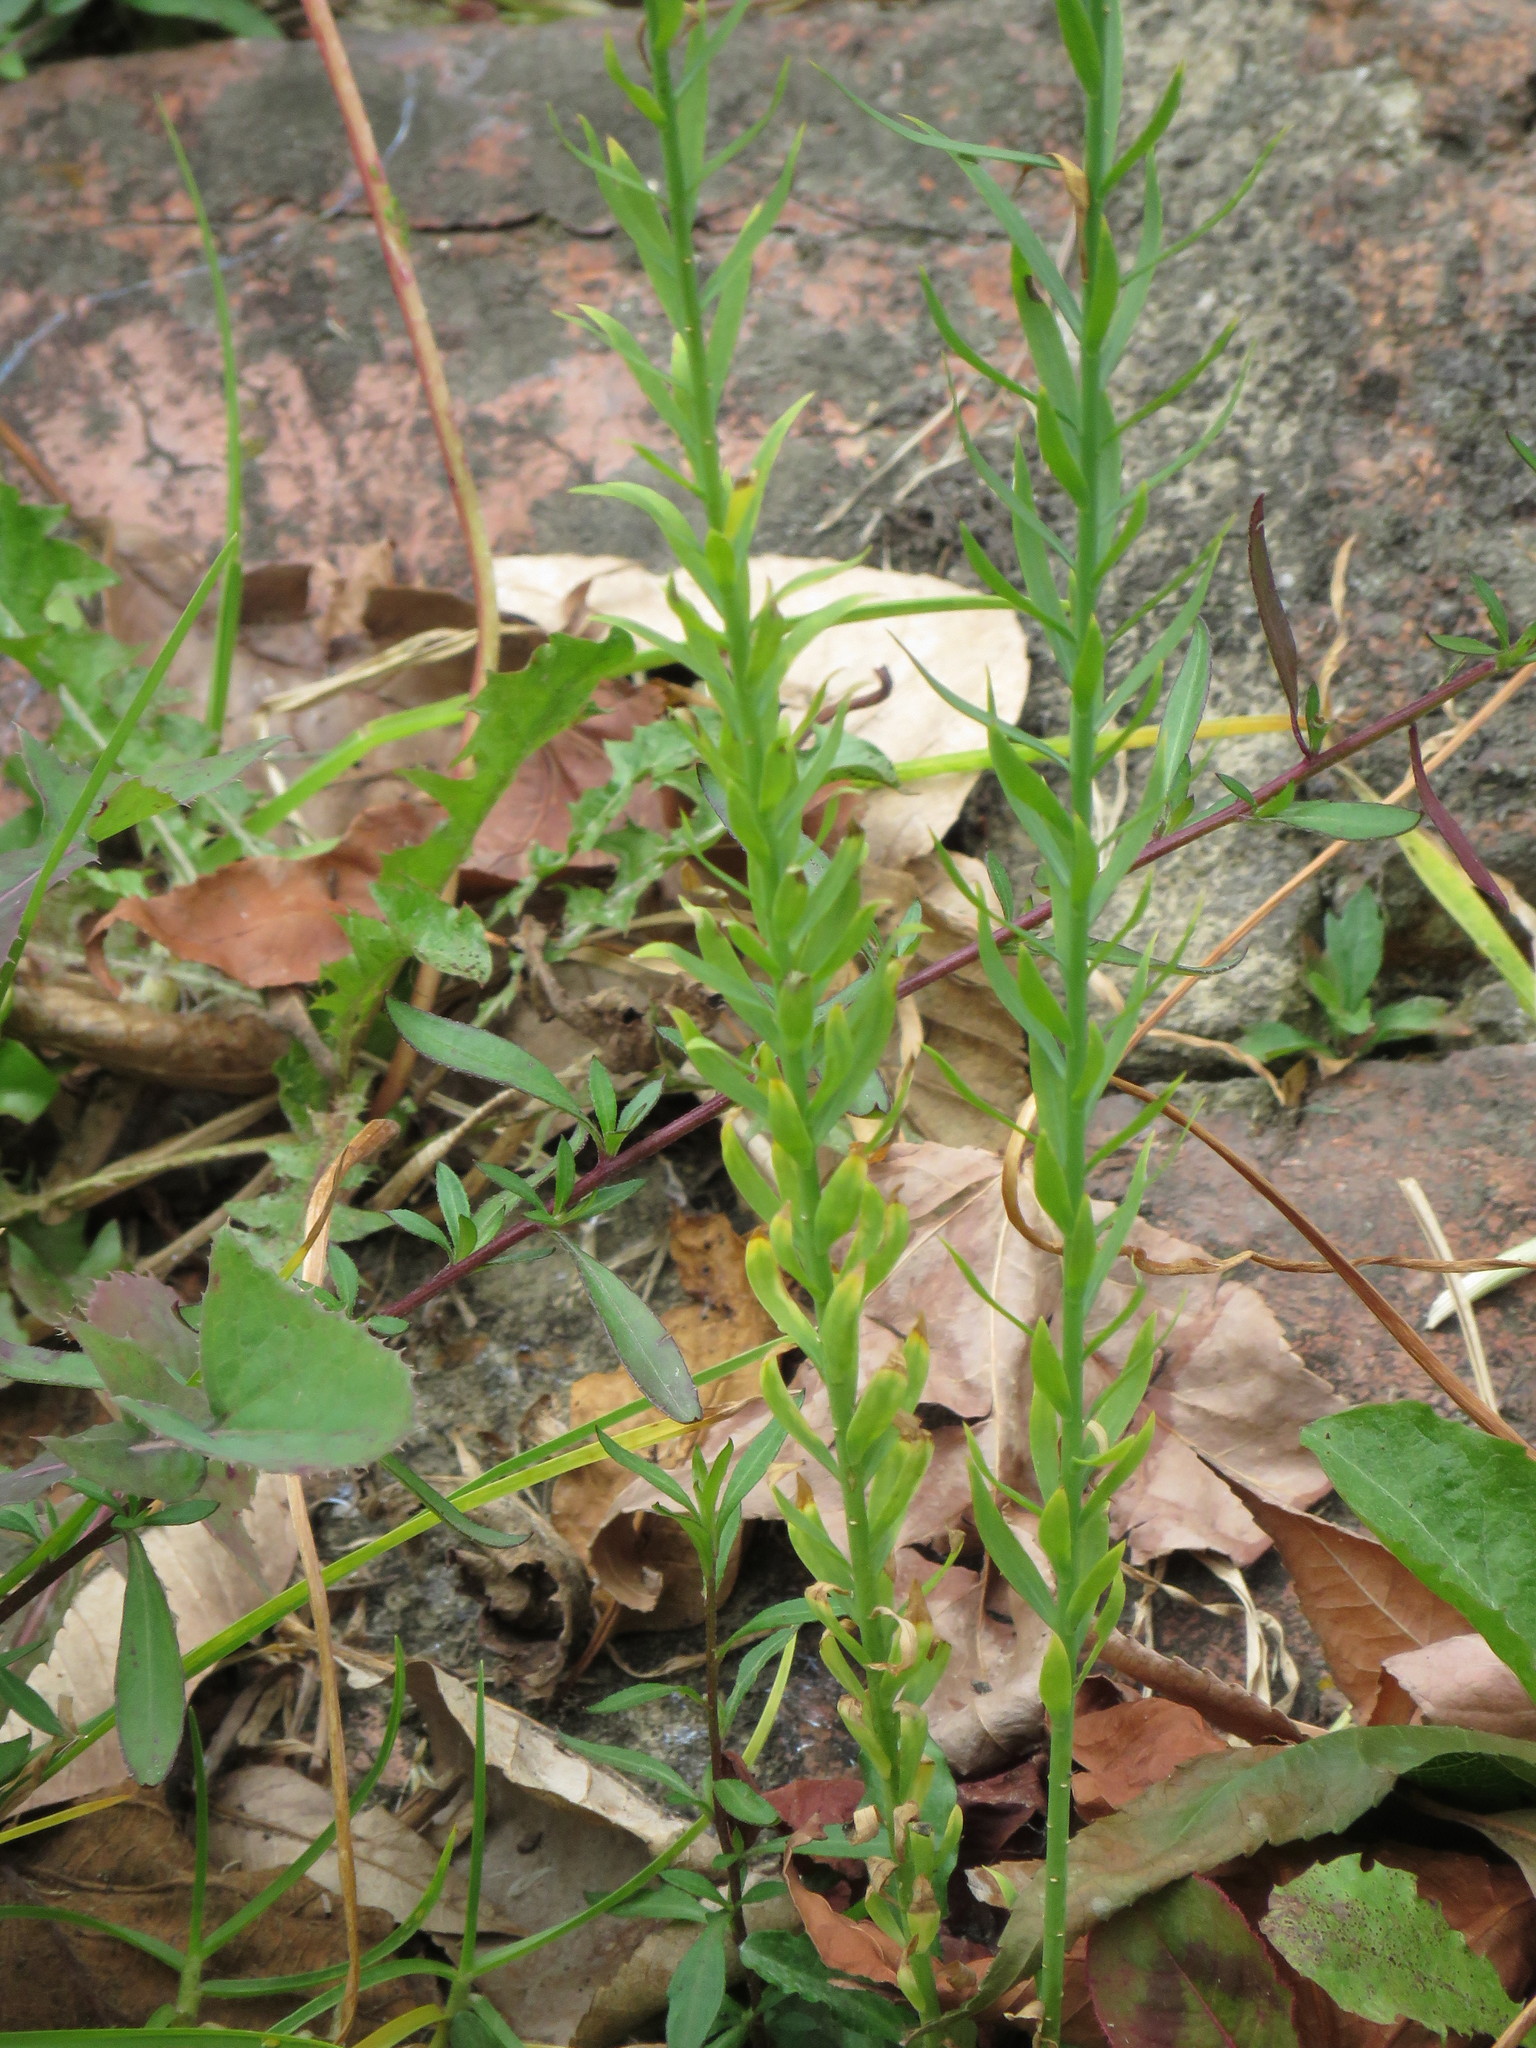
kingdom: Plantae
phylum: Tracheophyta
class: Magnoliopsida
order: Malpighiales
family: Linaceae
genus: Linum
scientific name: Linum usitatissimum
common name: Flax
